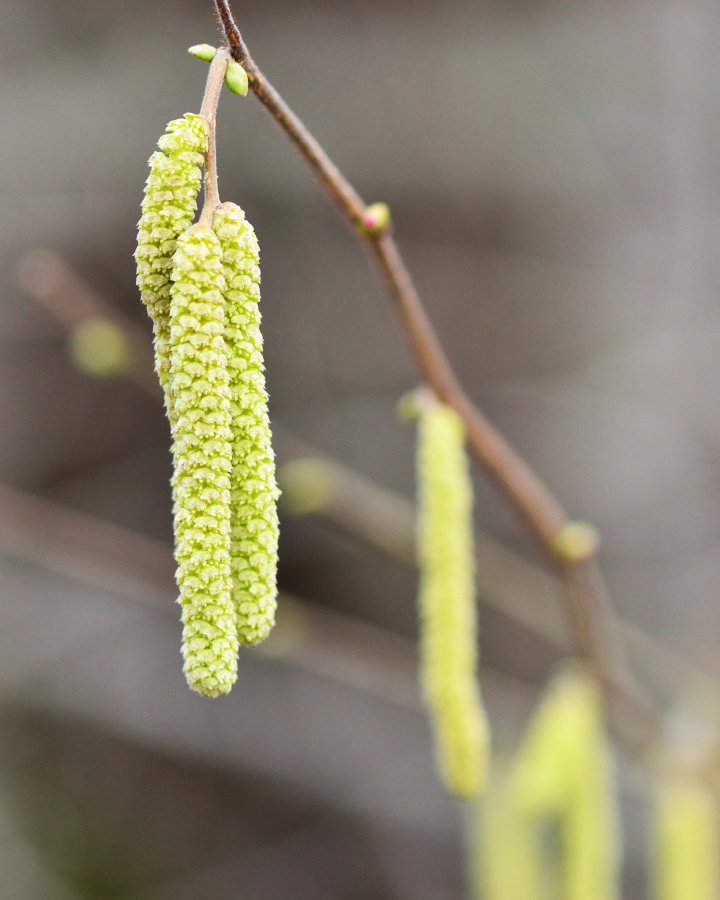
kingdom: Plantae
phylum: Tracheophyta
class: Magnoliopsida
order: Fagales
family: Betulaceae
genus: Corylus
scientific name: Corylus avellana
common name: European hazel
